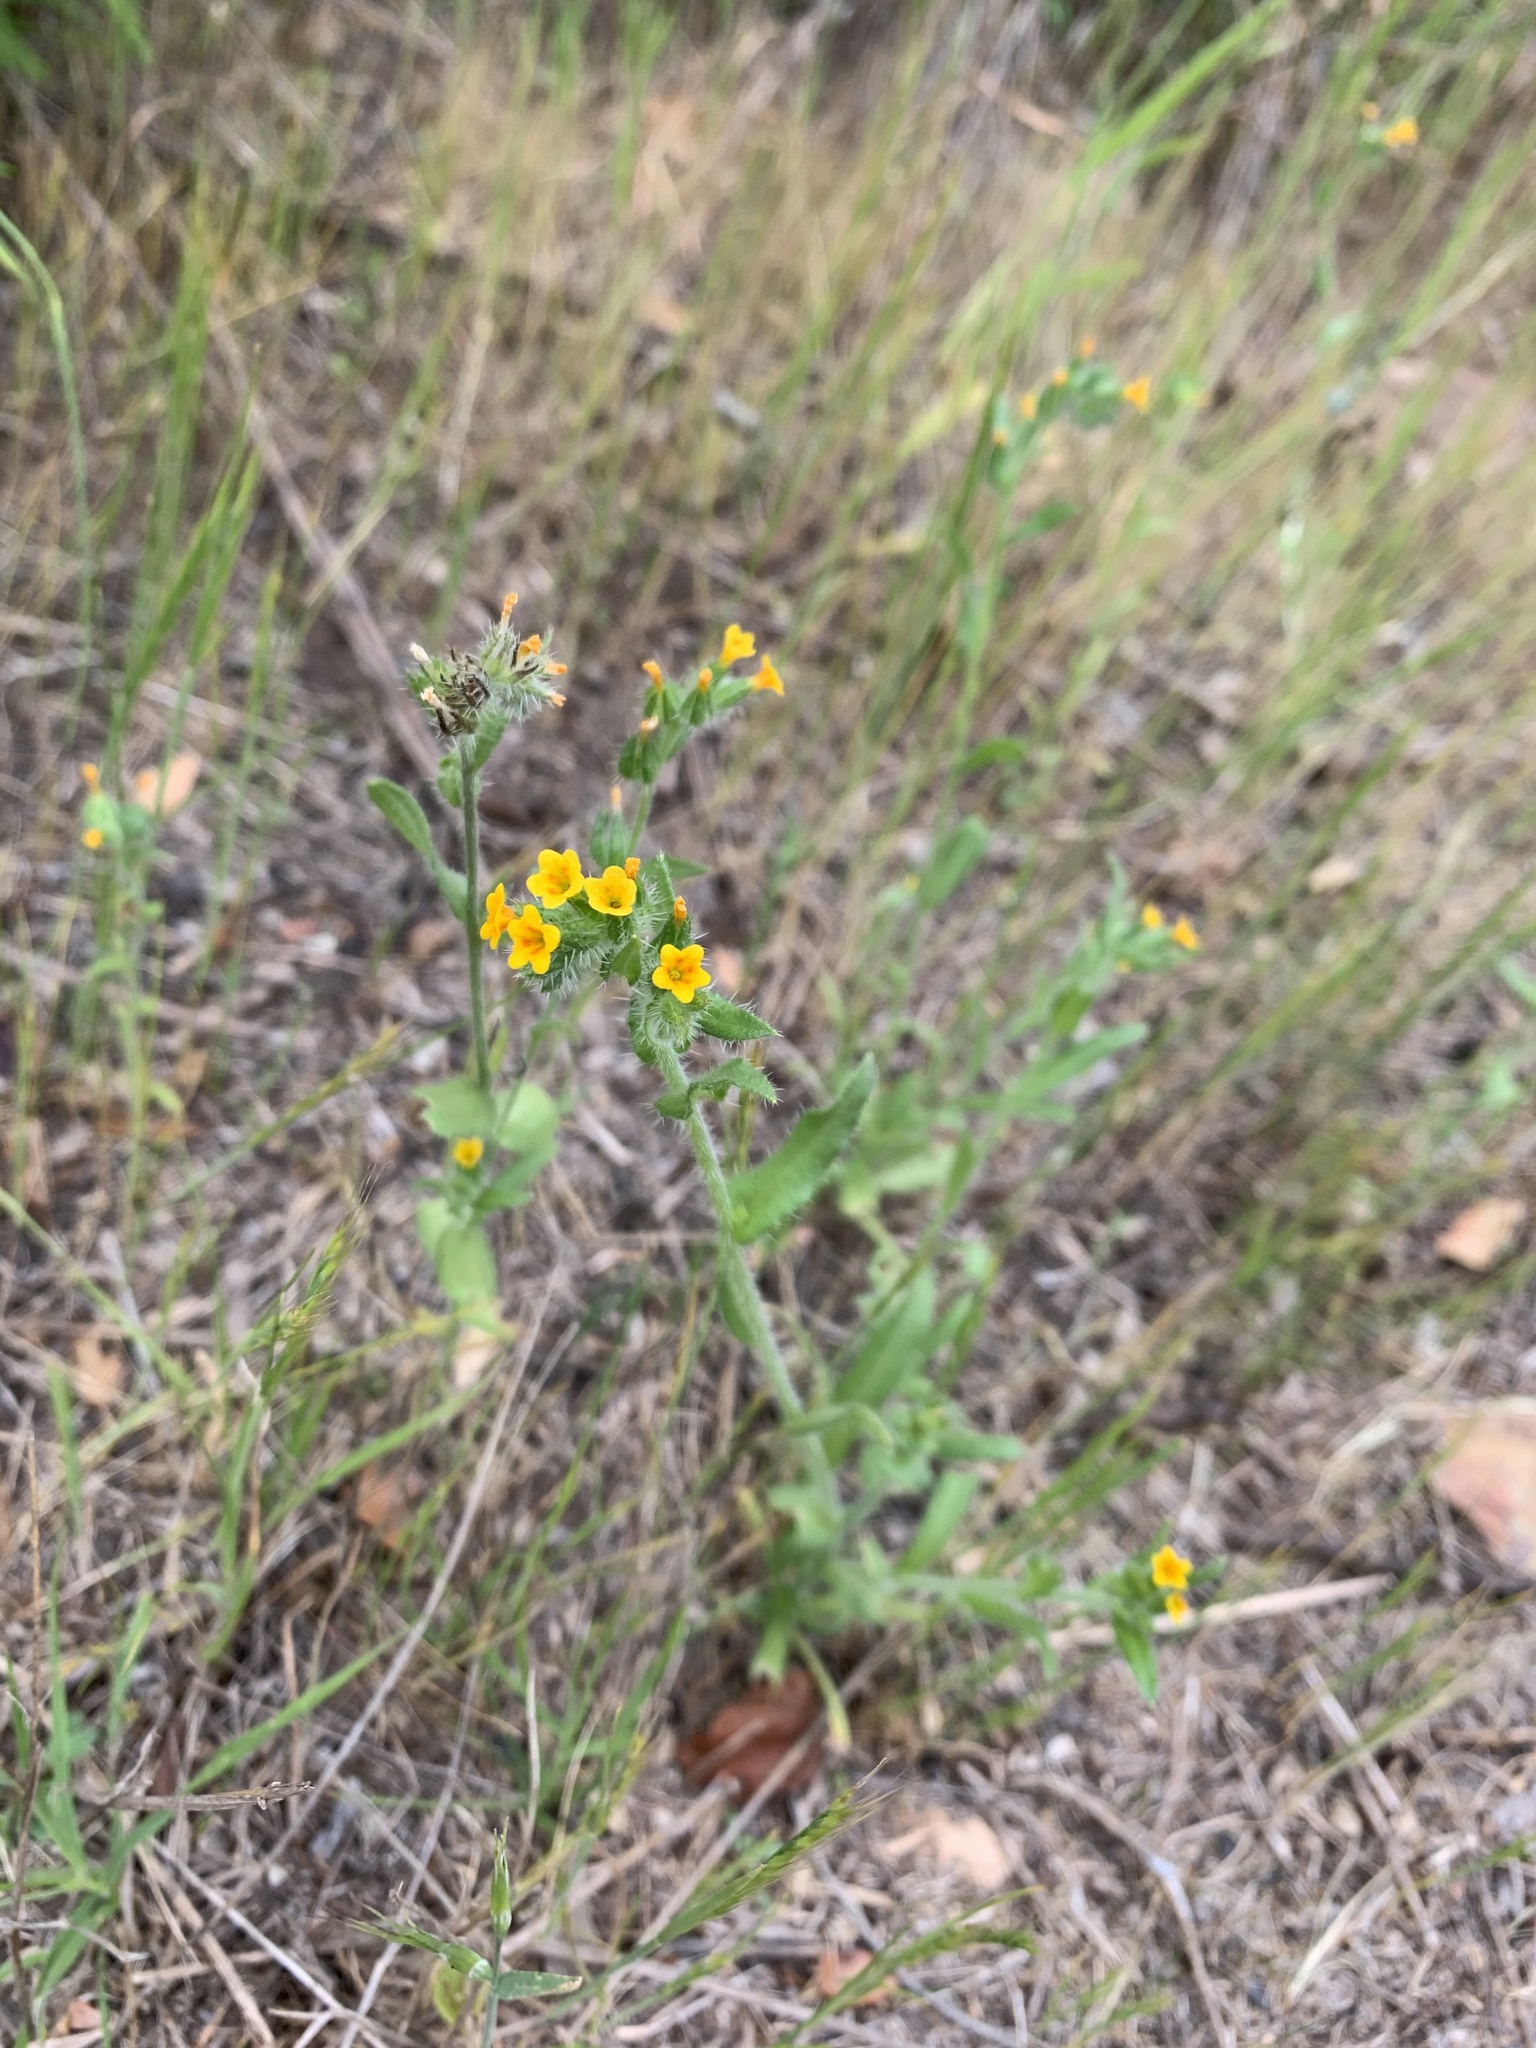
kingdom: Plantae
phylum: Tracheophyta
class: Magnoliopsida
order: Boraginales
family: Boraginaceae
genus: Amsinckia
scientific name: Amsinckia menziesii
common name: Menzies' fiddleneck
